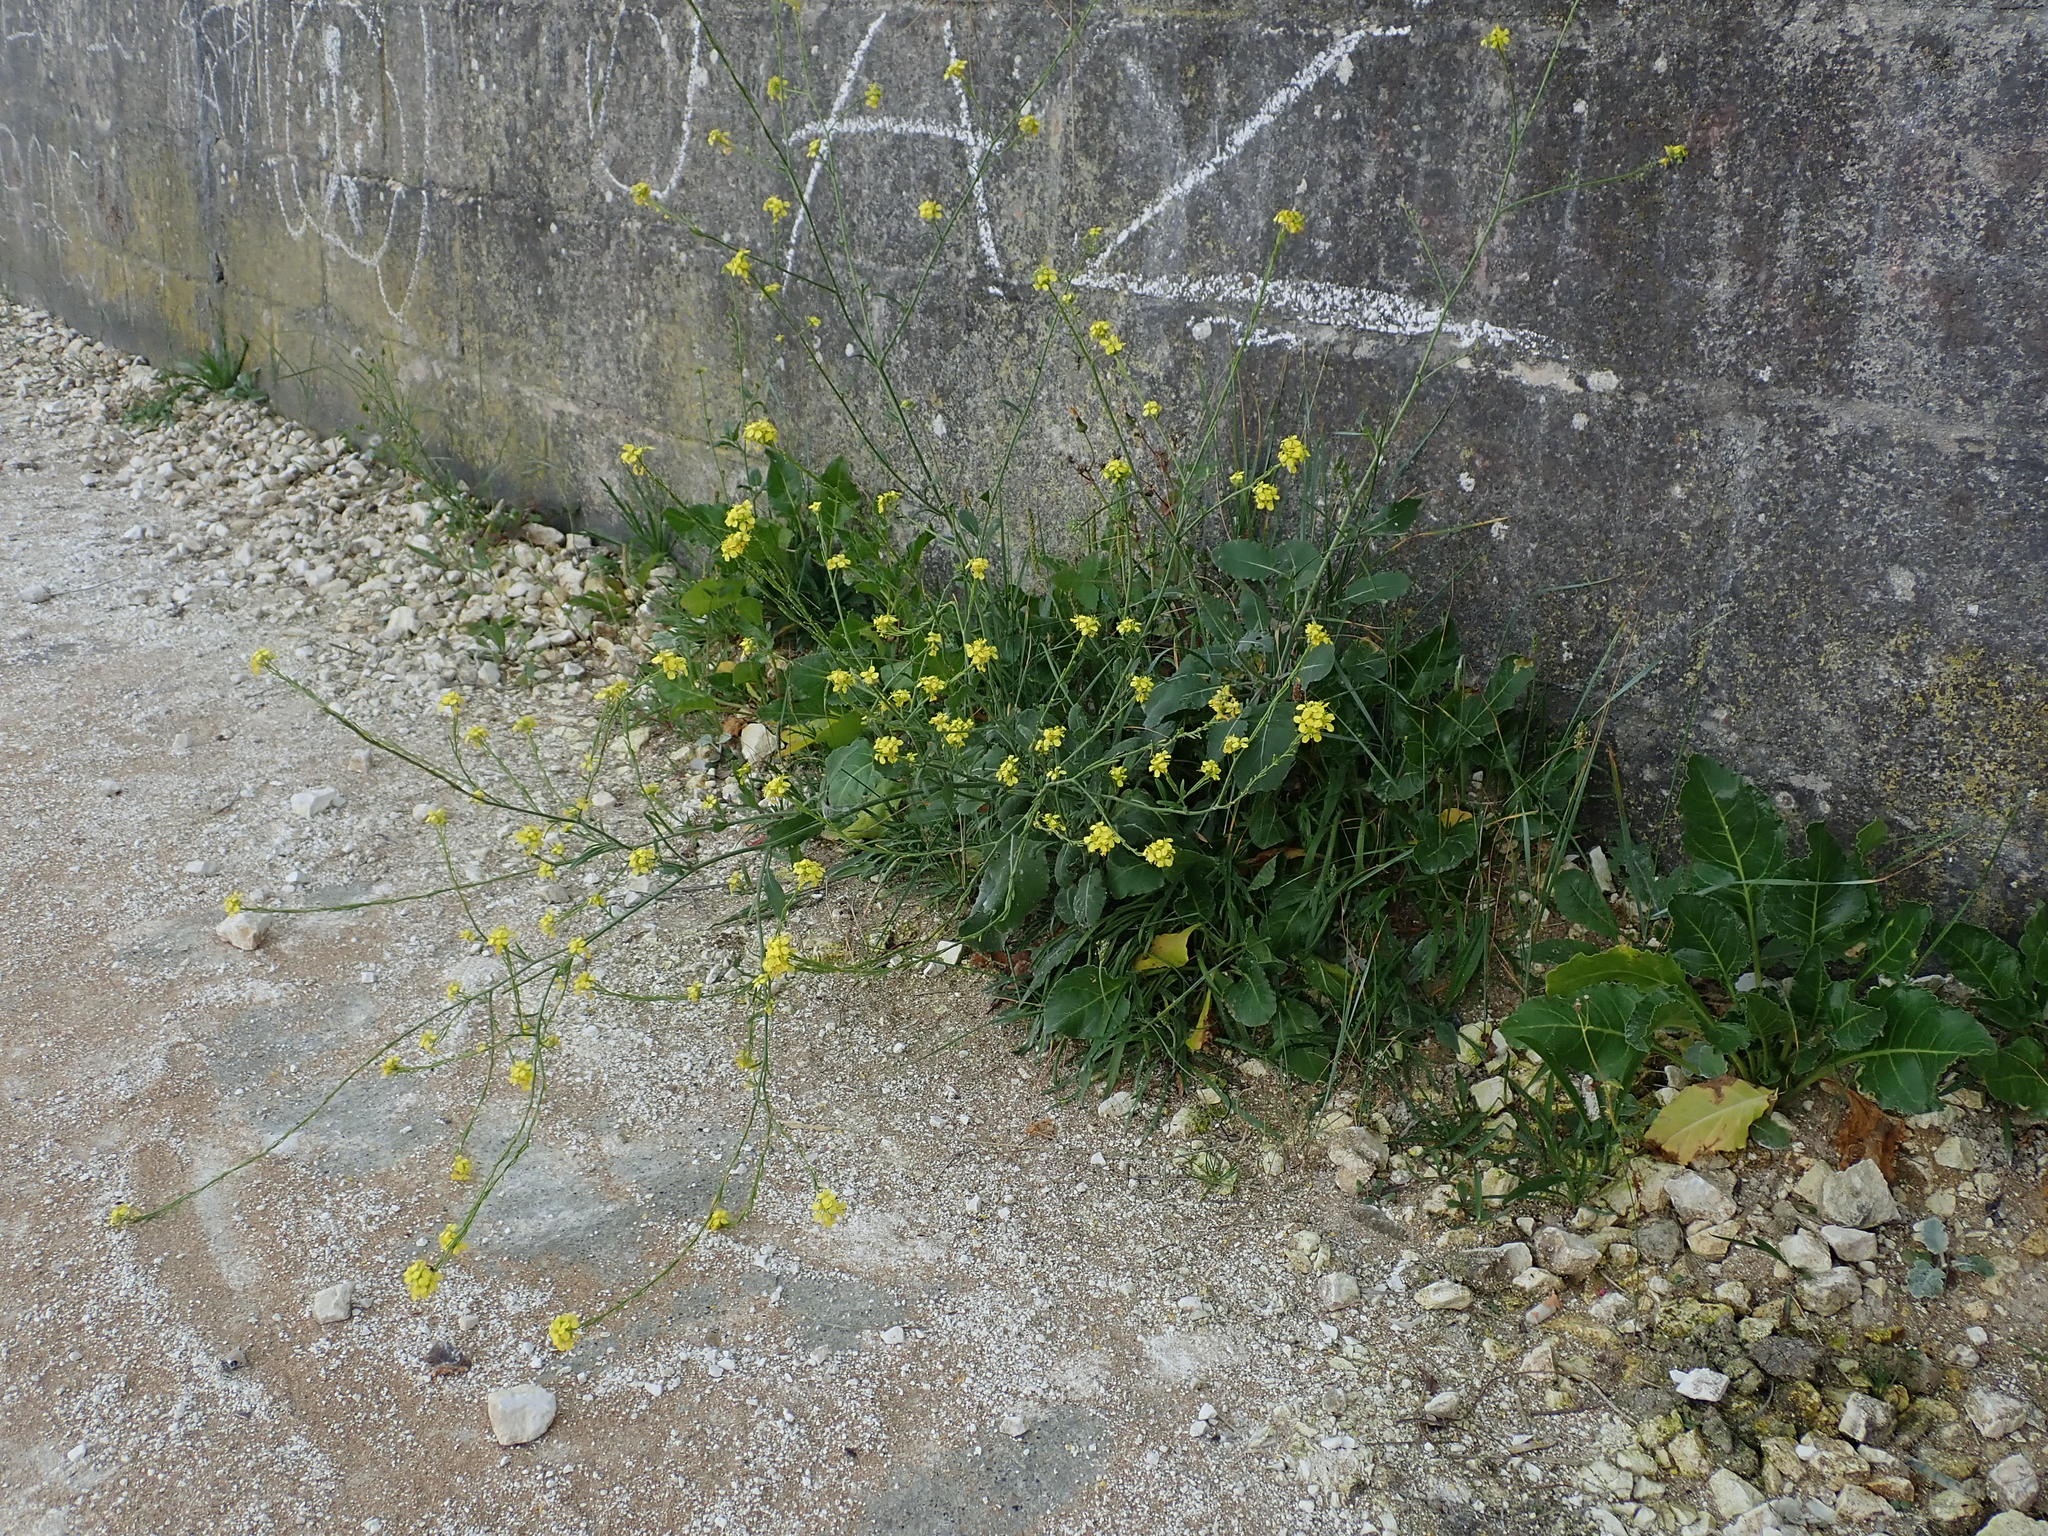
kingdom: Plantae
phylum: Tracheophyta
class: Magnoliopsida
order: Brassicales
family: Brassicaceae
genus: Hirschfeldia
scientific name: Hirschfeldia incana
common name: Hoary mustard
